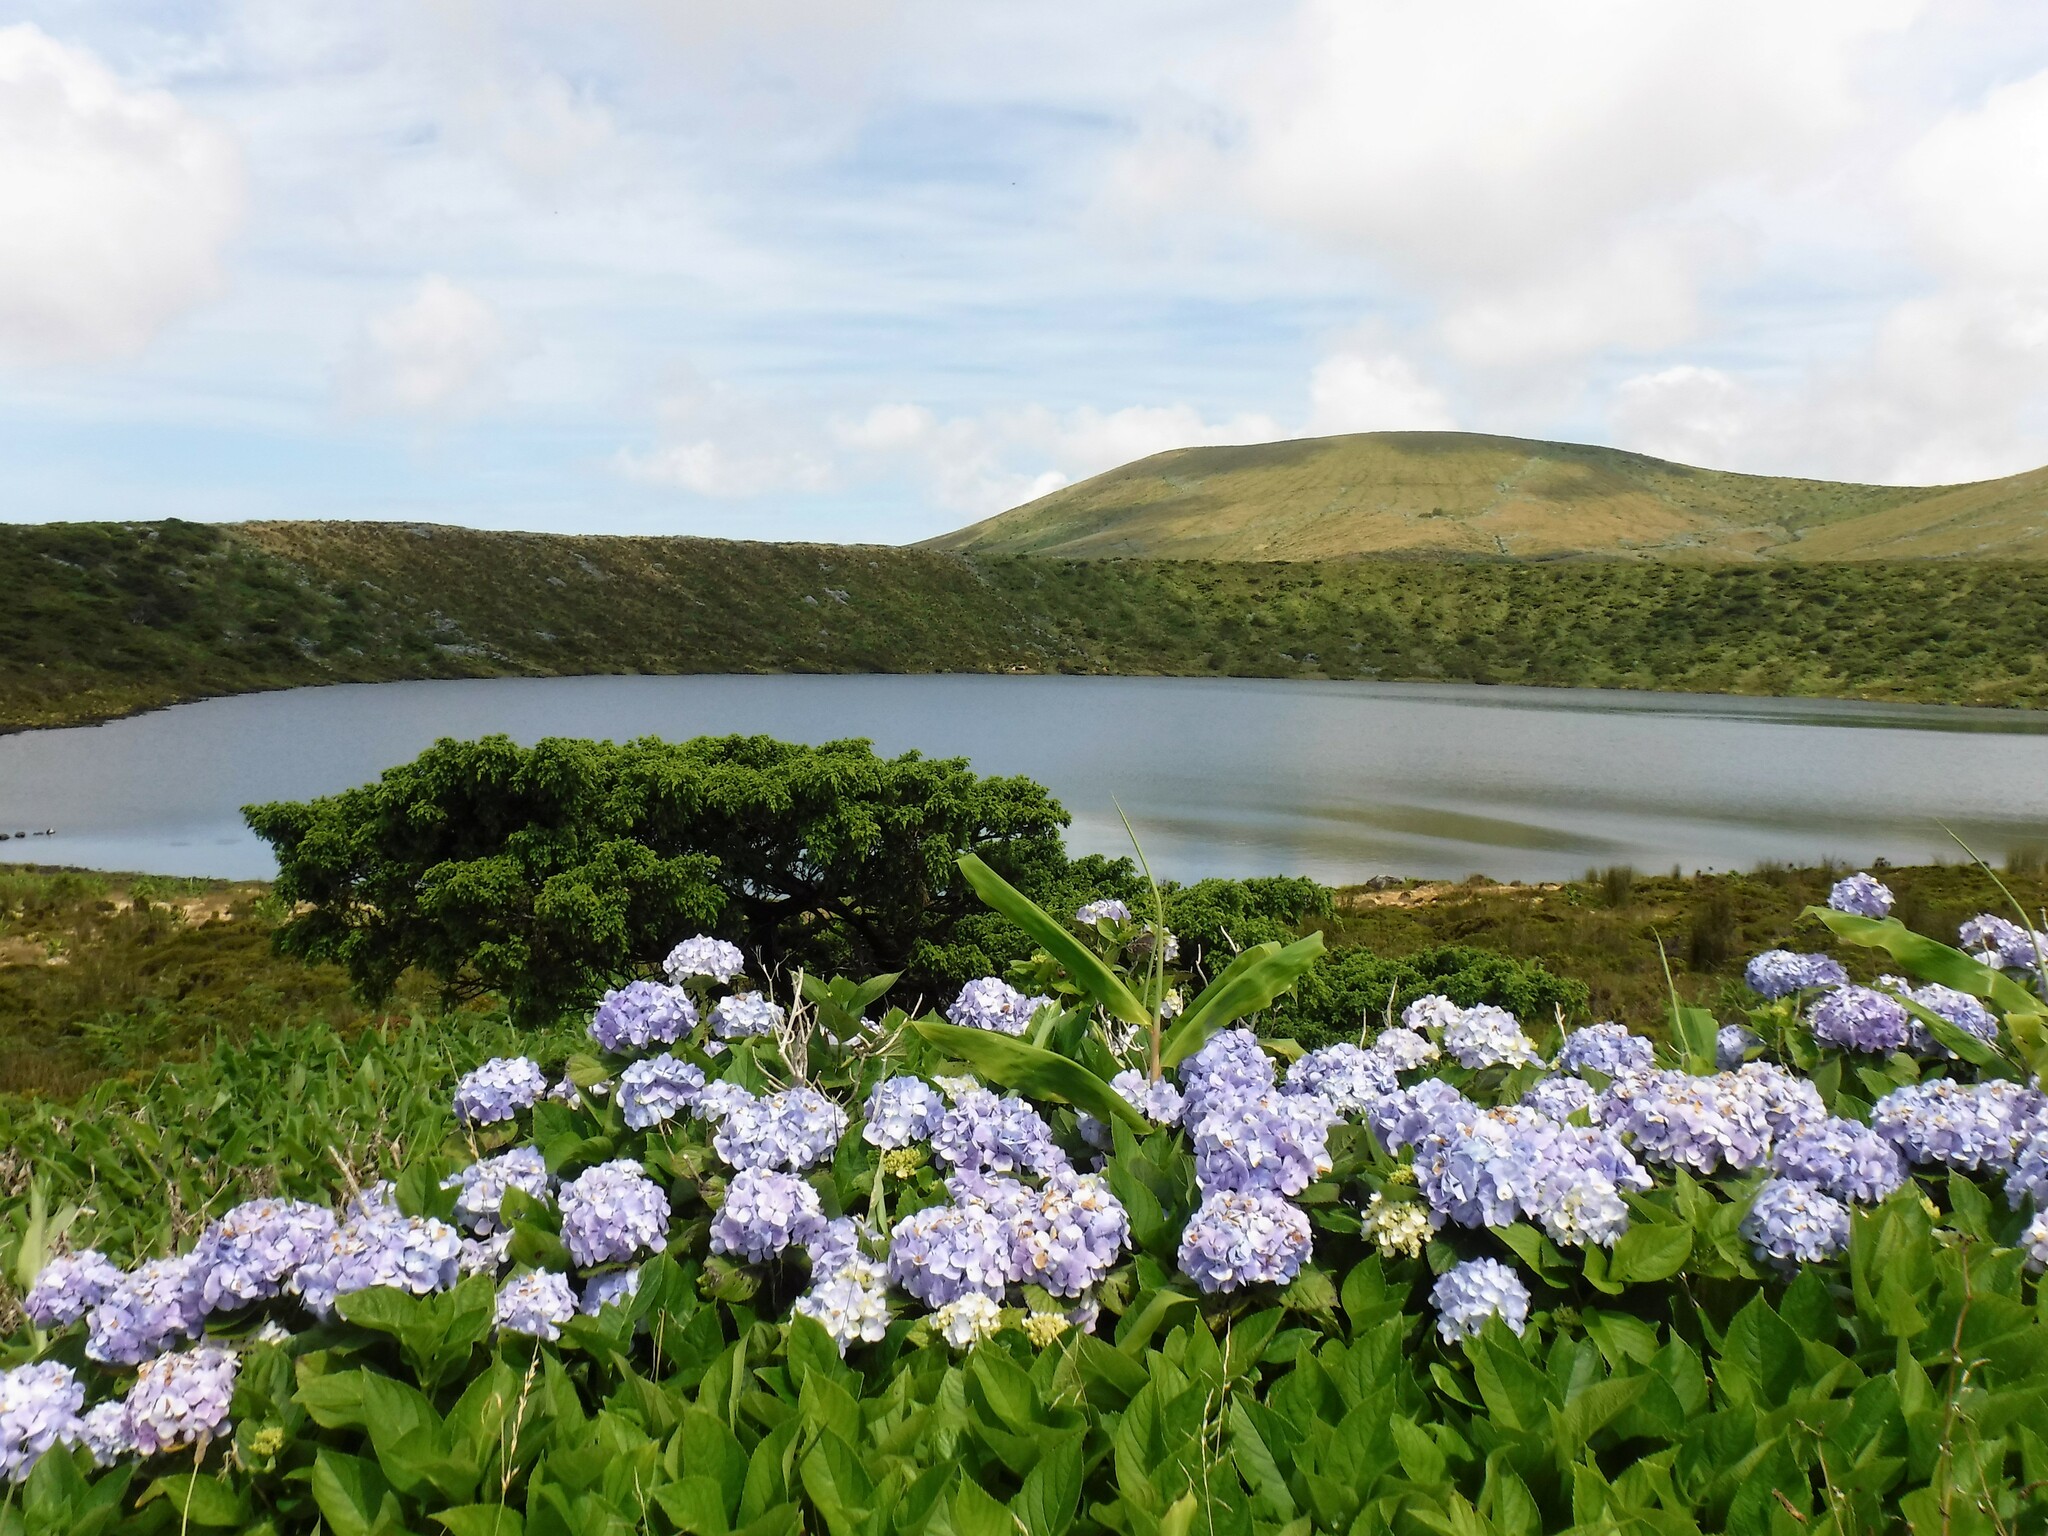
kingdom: Plantae
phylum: Tracheophyta
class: Magnoliopsida
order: Cornales
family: Hydrangeaceae
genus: Hydrangea
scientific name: Hydrangea macrophylla
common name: Hydrangea
